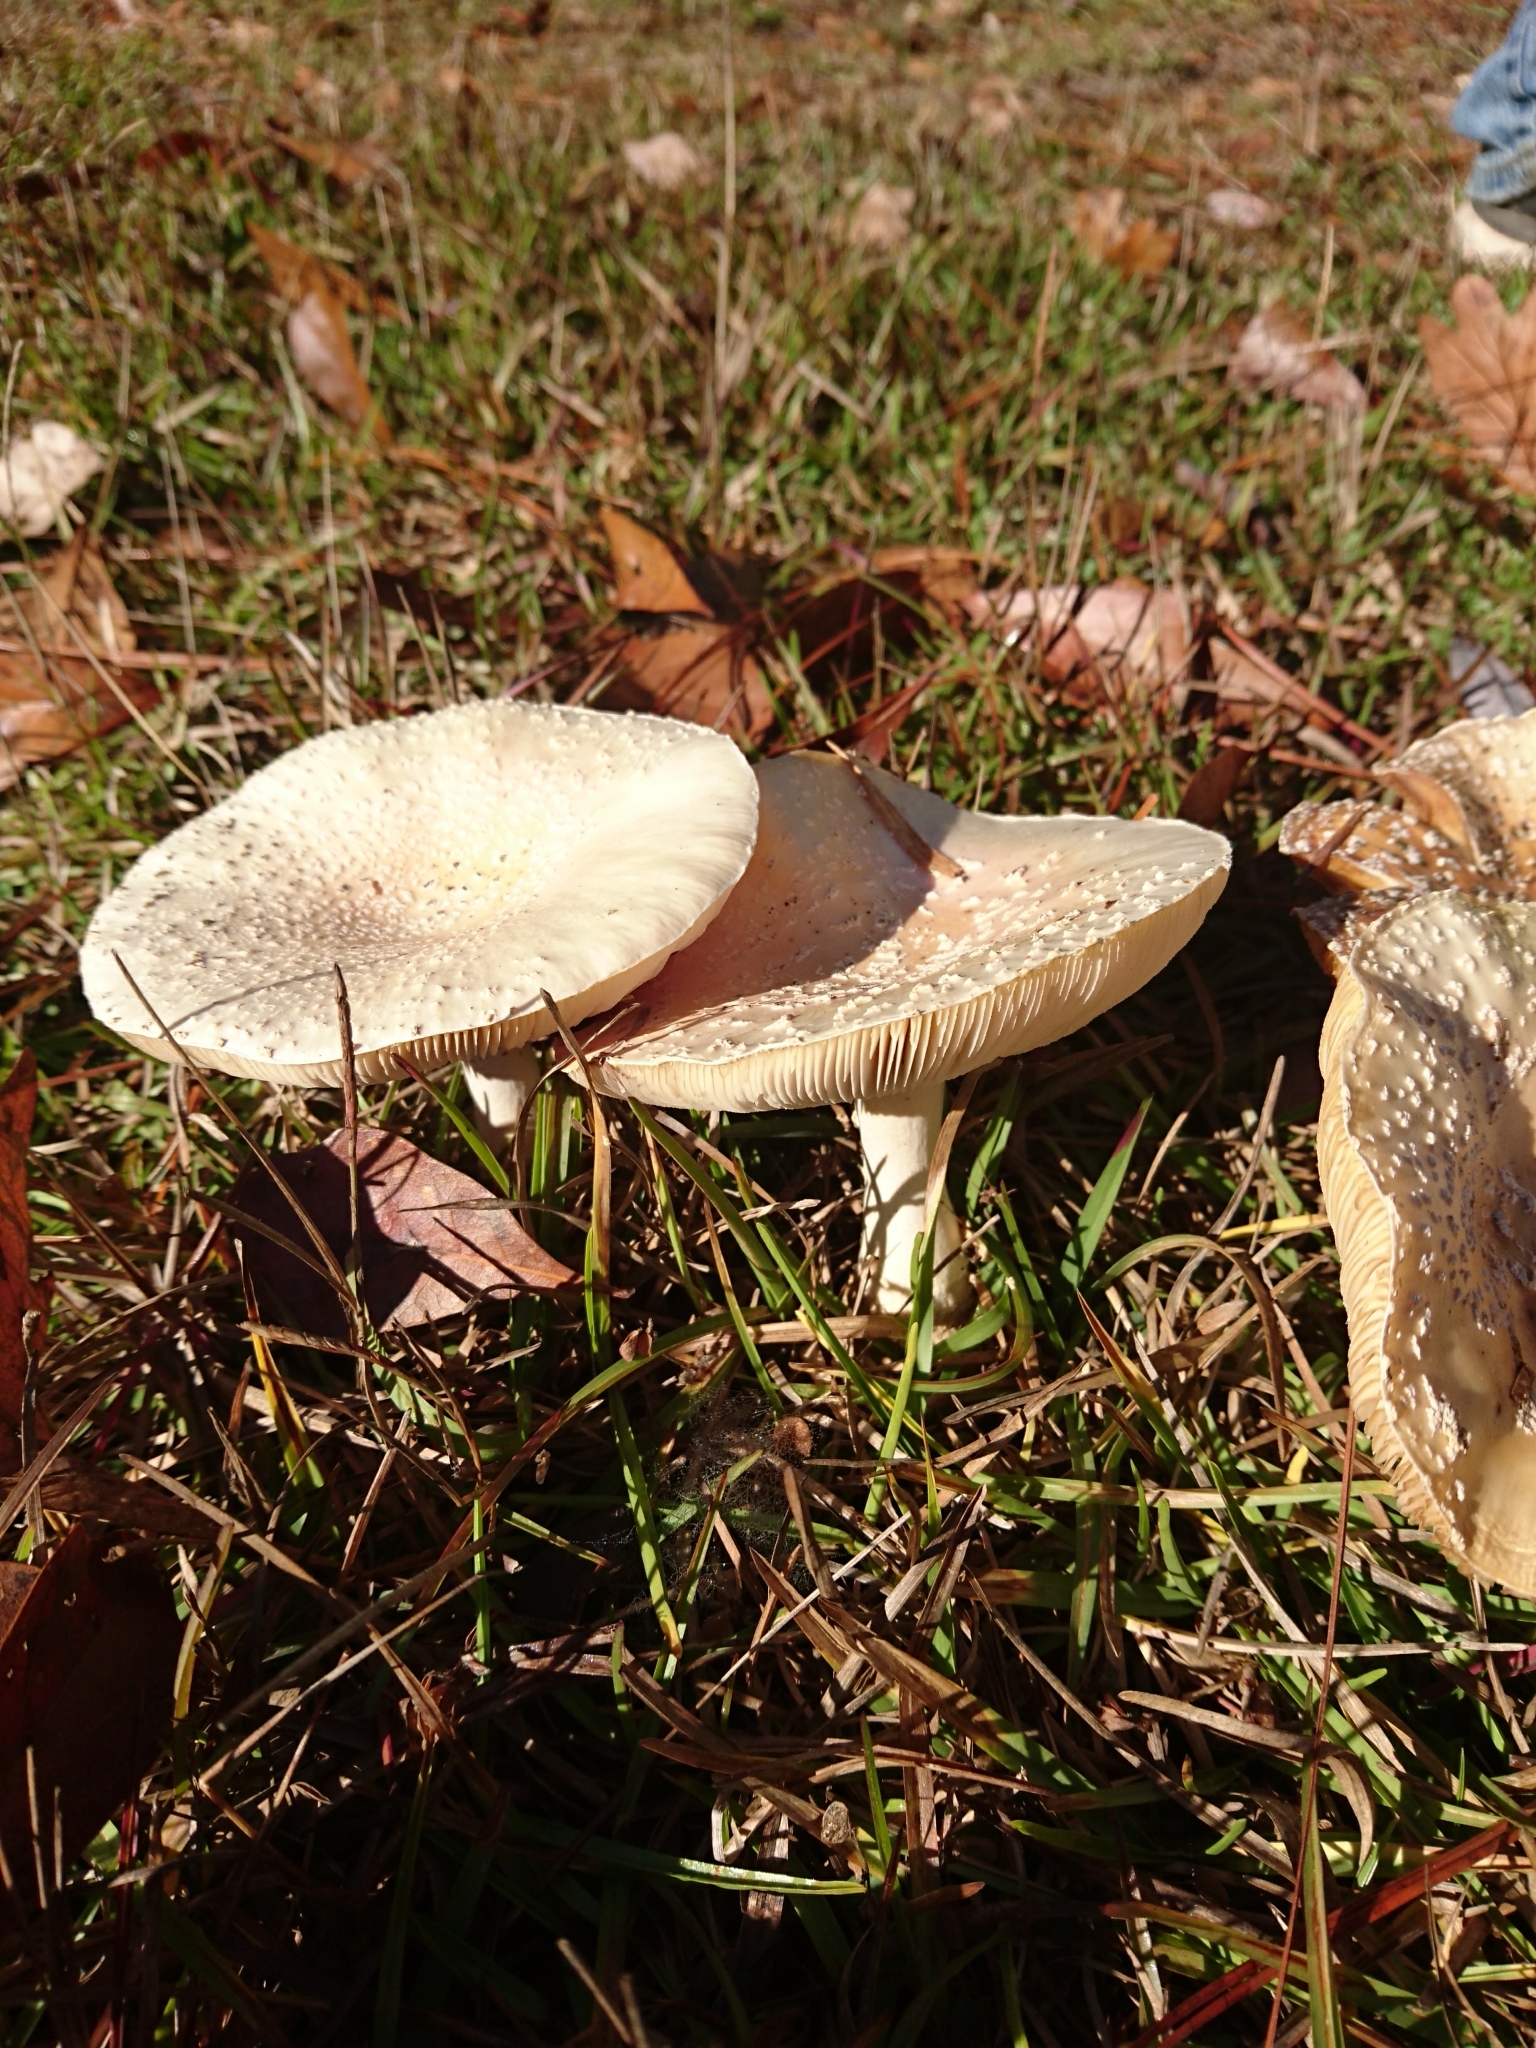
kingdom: Fungi
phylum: Basidiomycota
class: Agaricomycetes
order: Agaricales
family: Amanitaceae
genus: Amanita
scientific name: Amanita persicina
